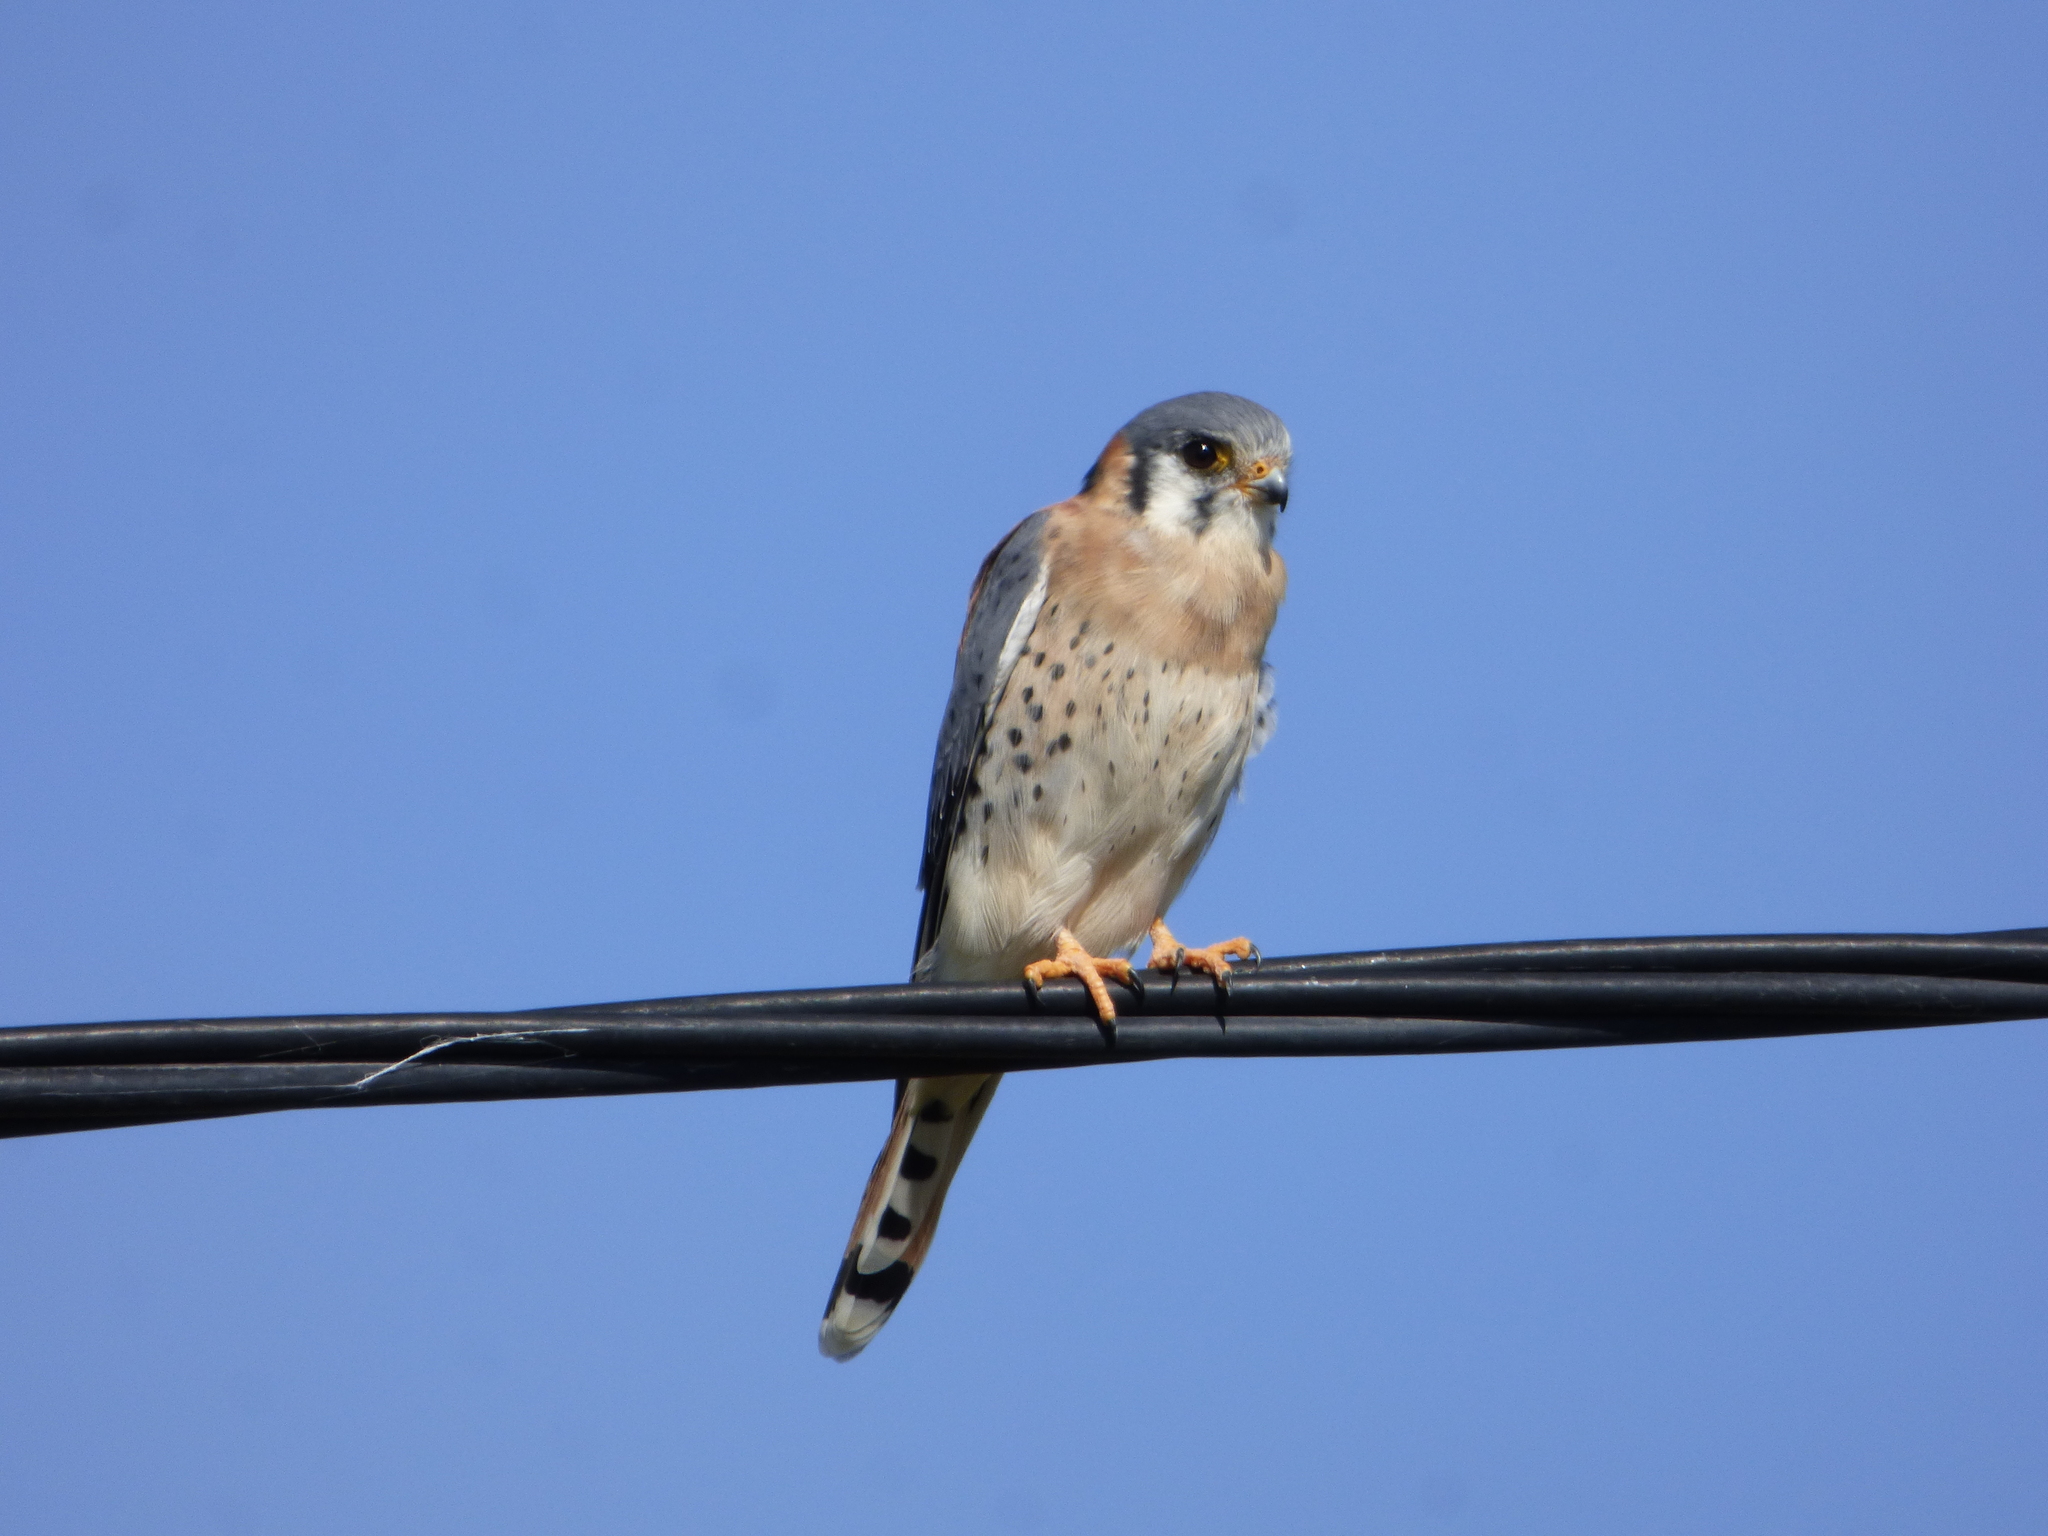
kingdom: Animalia
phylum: Chordata
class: Aves
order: Falconiformes
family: Falconidae
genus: Falco
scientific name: Falco sparverius
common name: American kestrel
